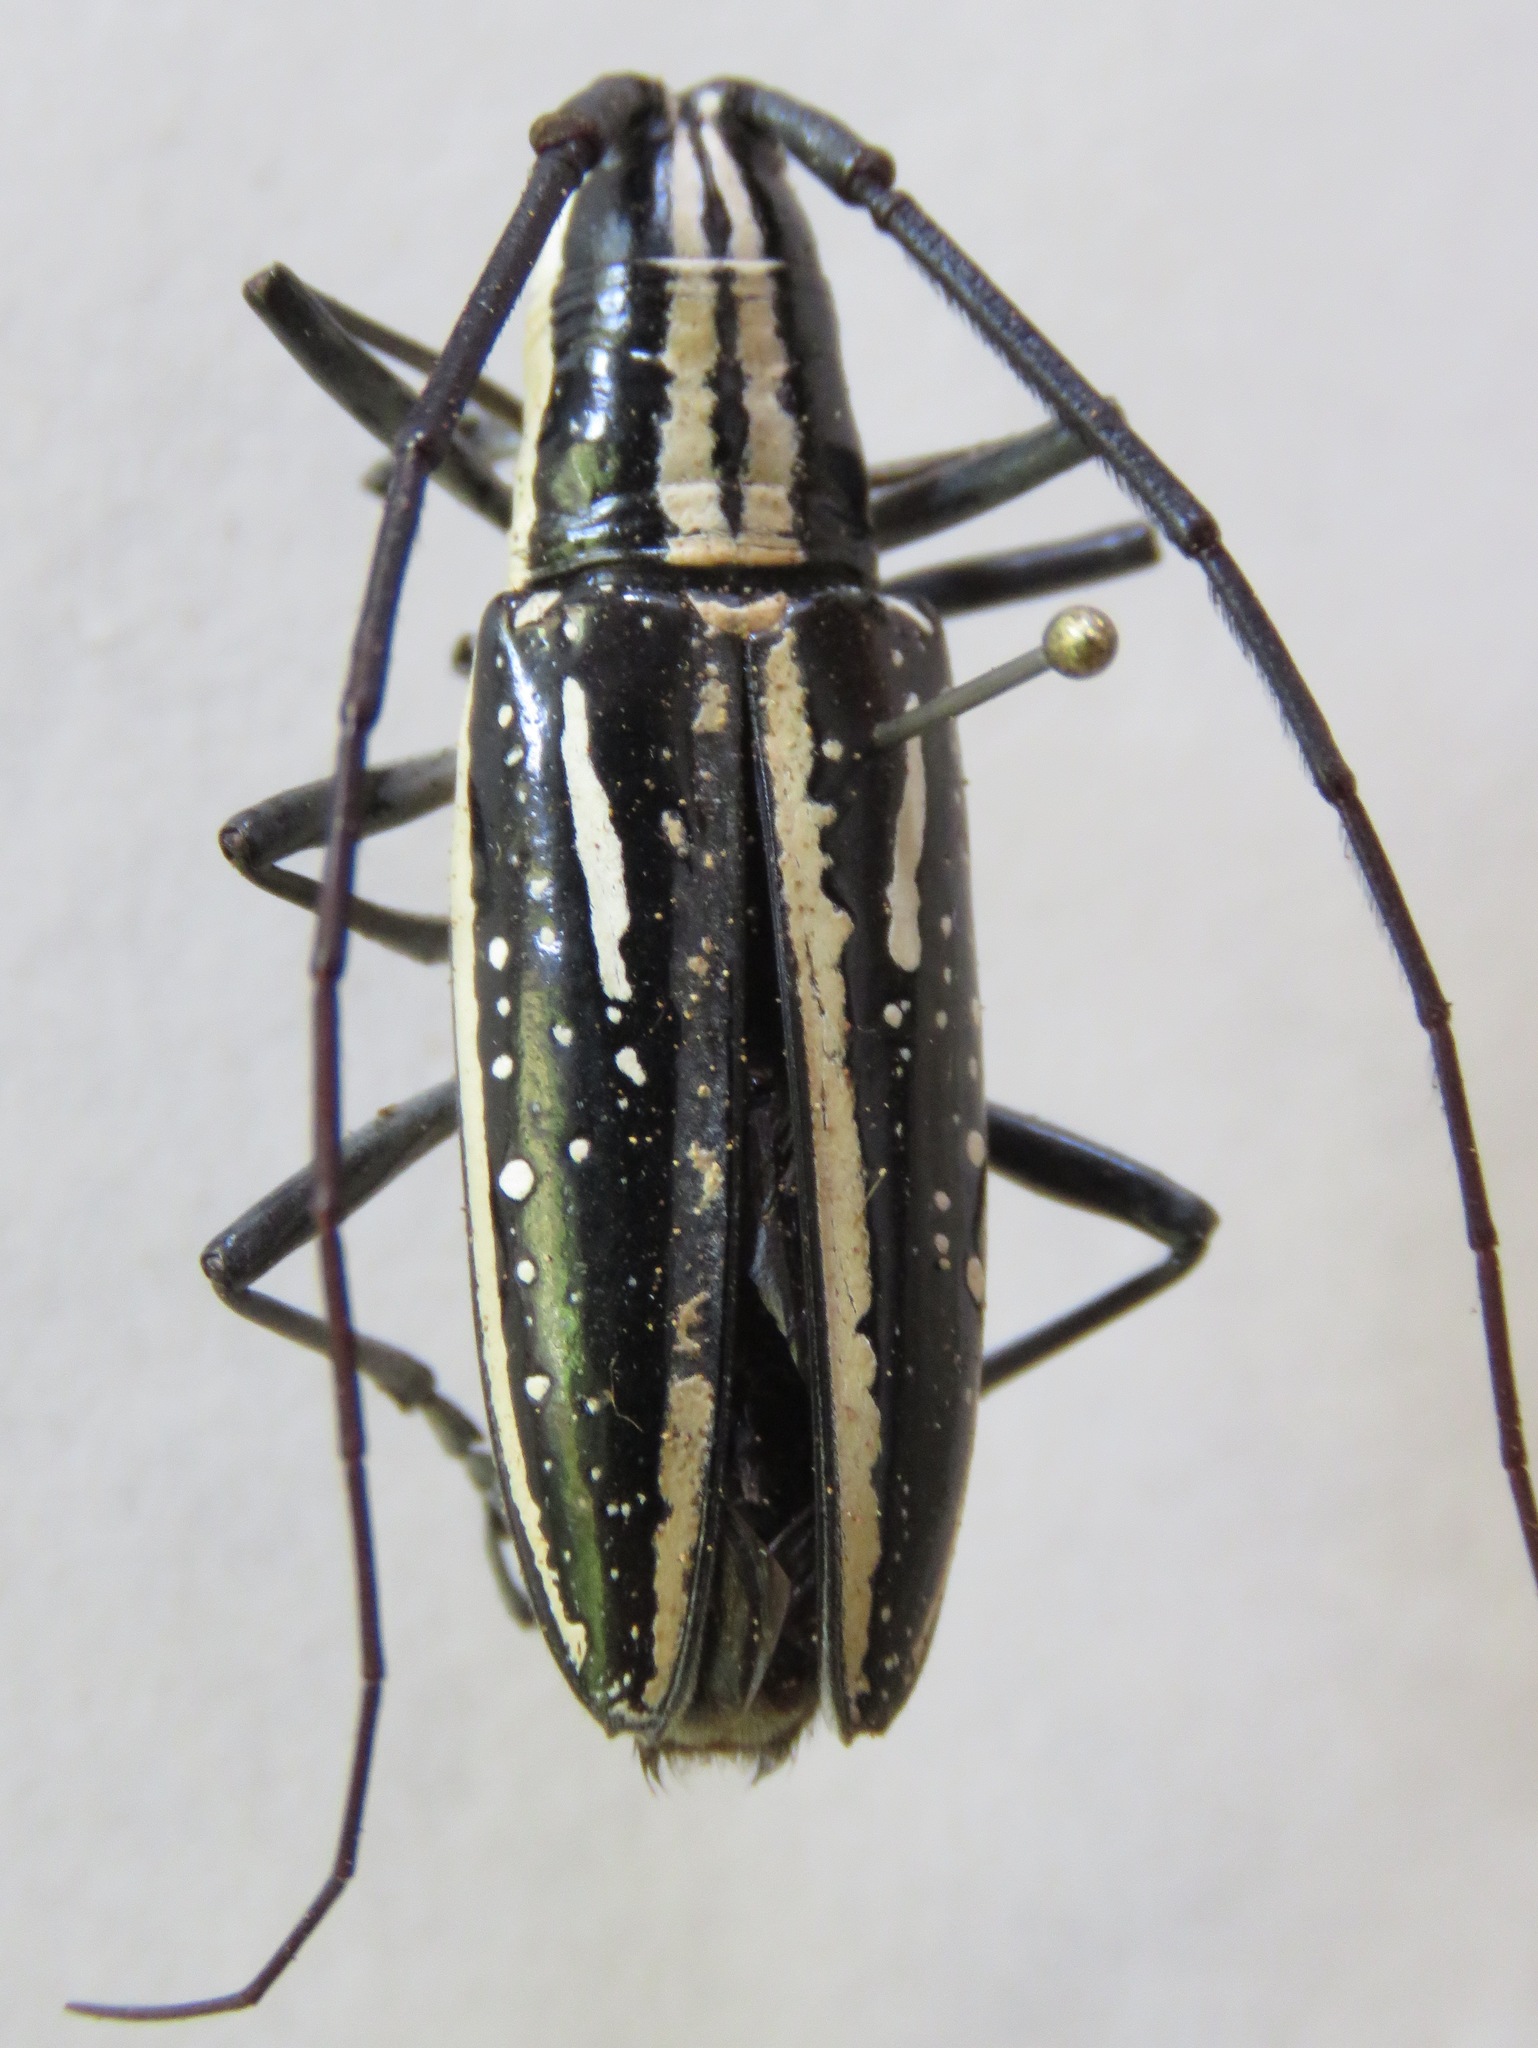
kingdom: Animalia
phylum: Arthropoda
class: Insecta
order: Coleoptera
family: Cerambycidae
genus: Ptychodes
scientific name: Ptychodes mixtus
